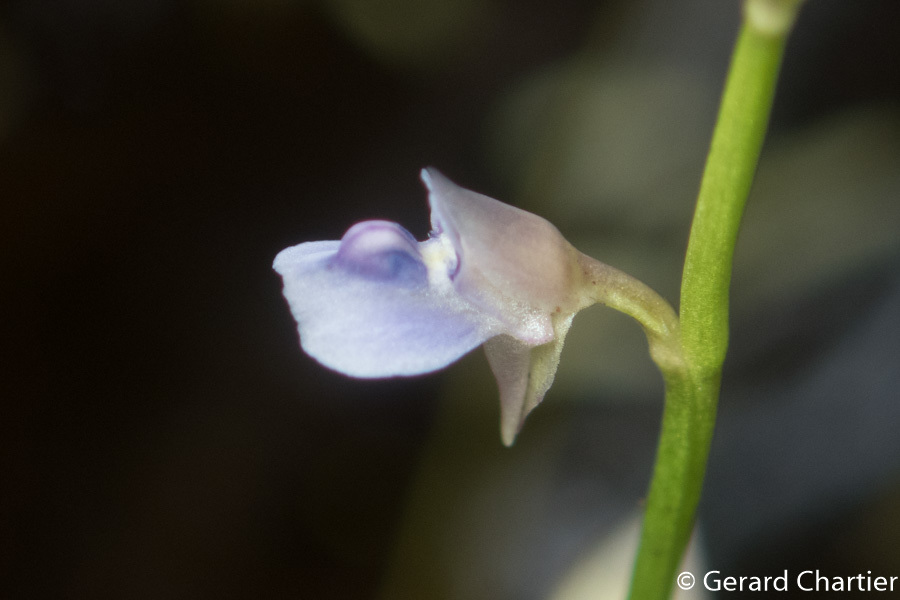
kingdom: Plantae
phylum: Tracheophyta
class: Magnoliopsida
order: Lamiales
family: Lentibulariaceae
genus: Utricularia
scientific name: Utricularia uliginosa
